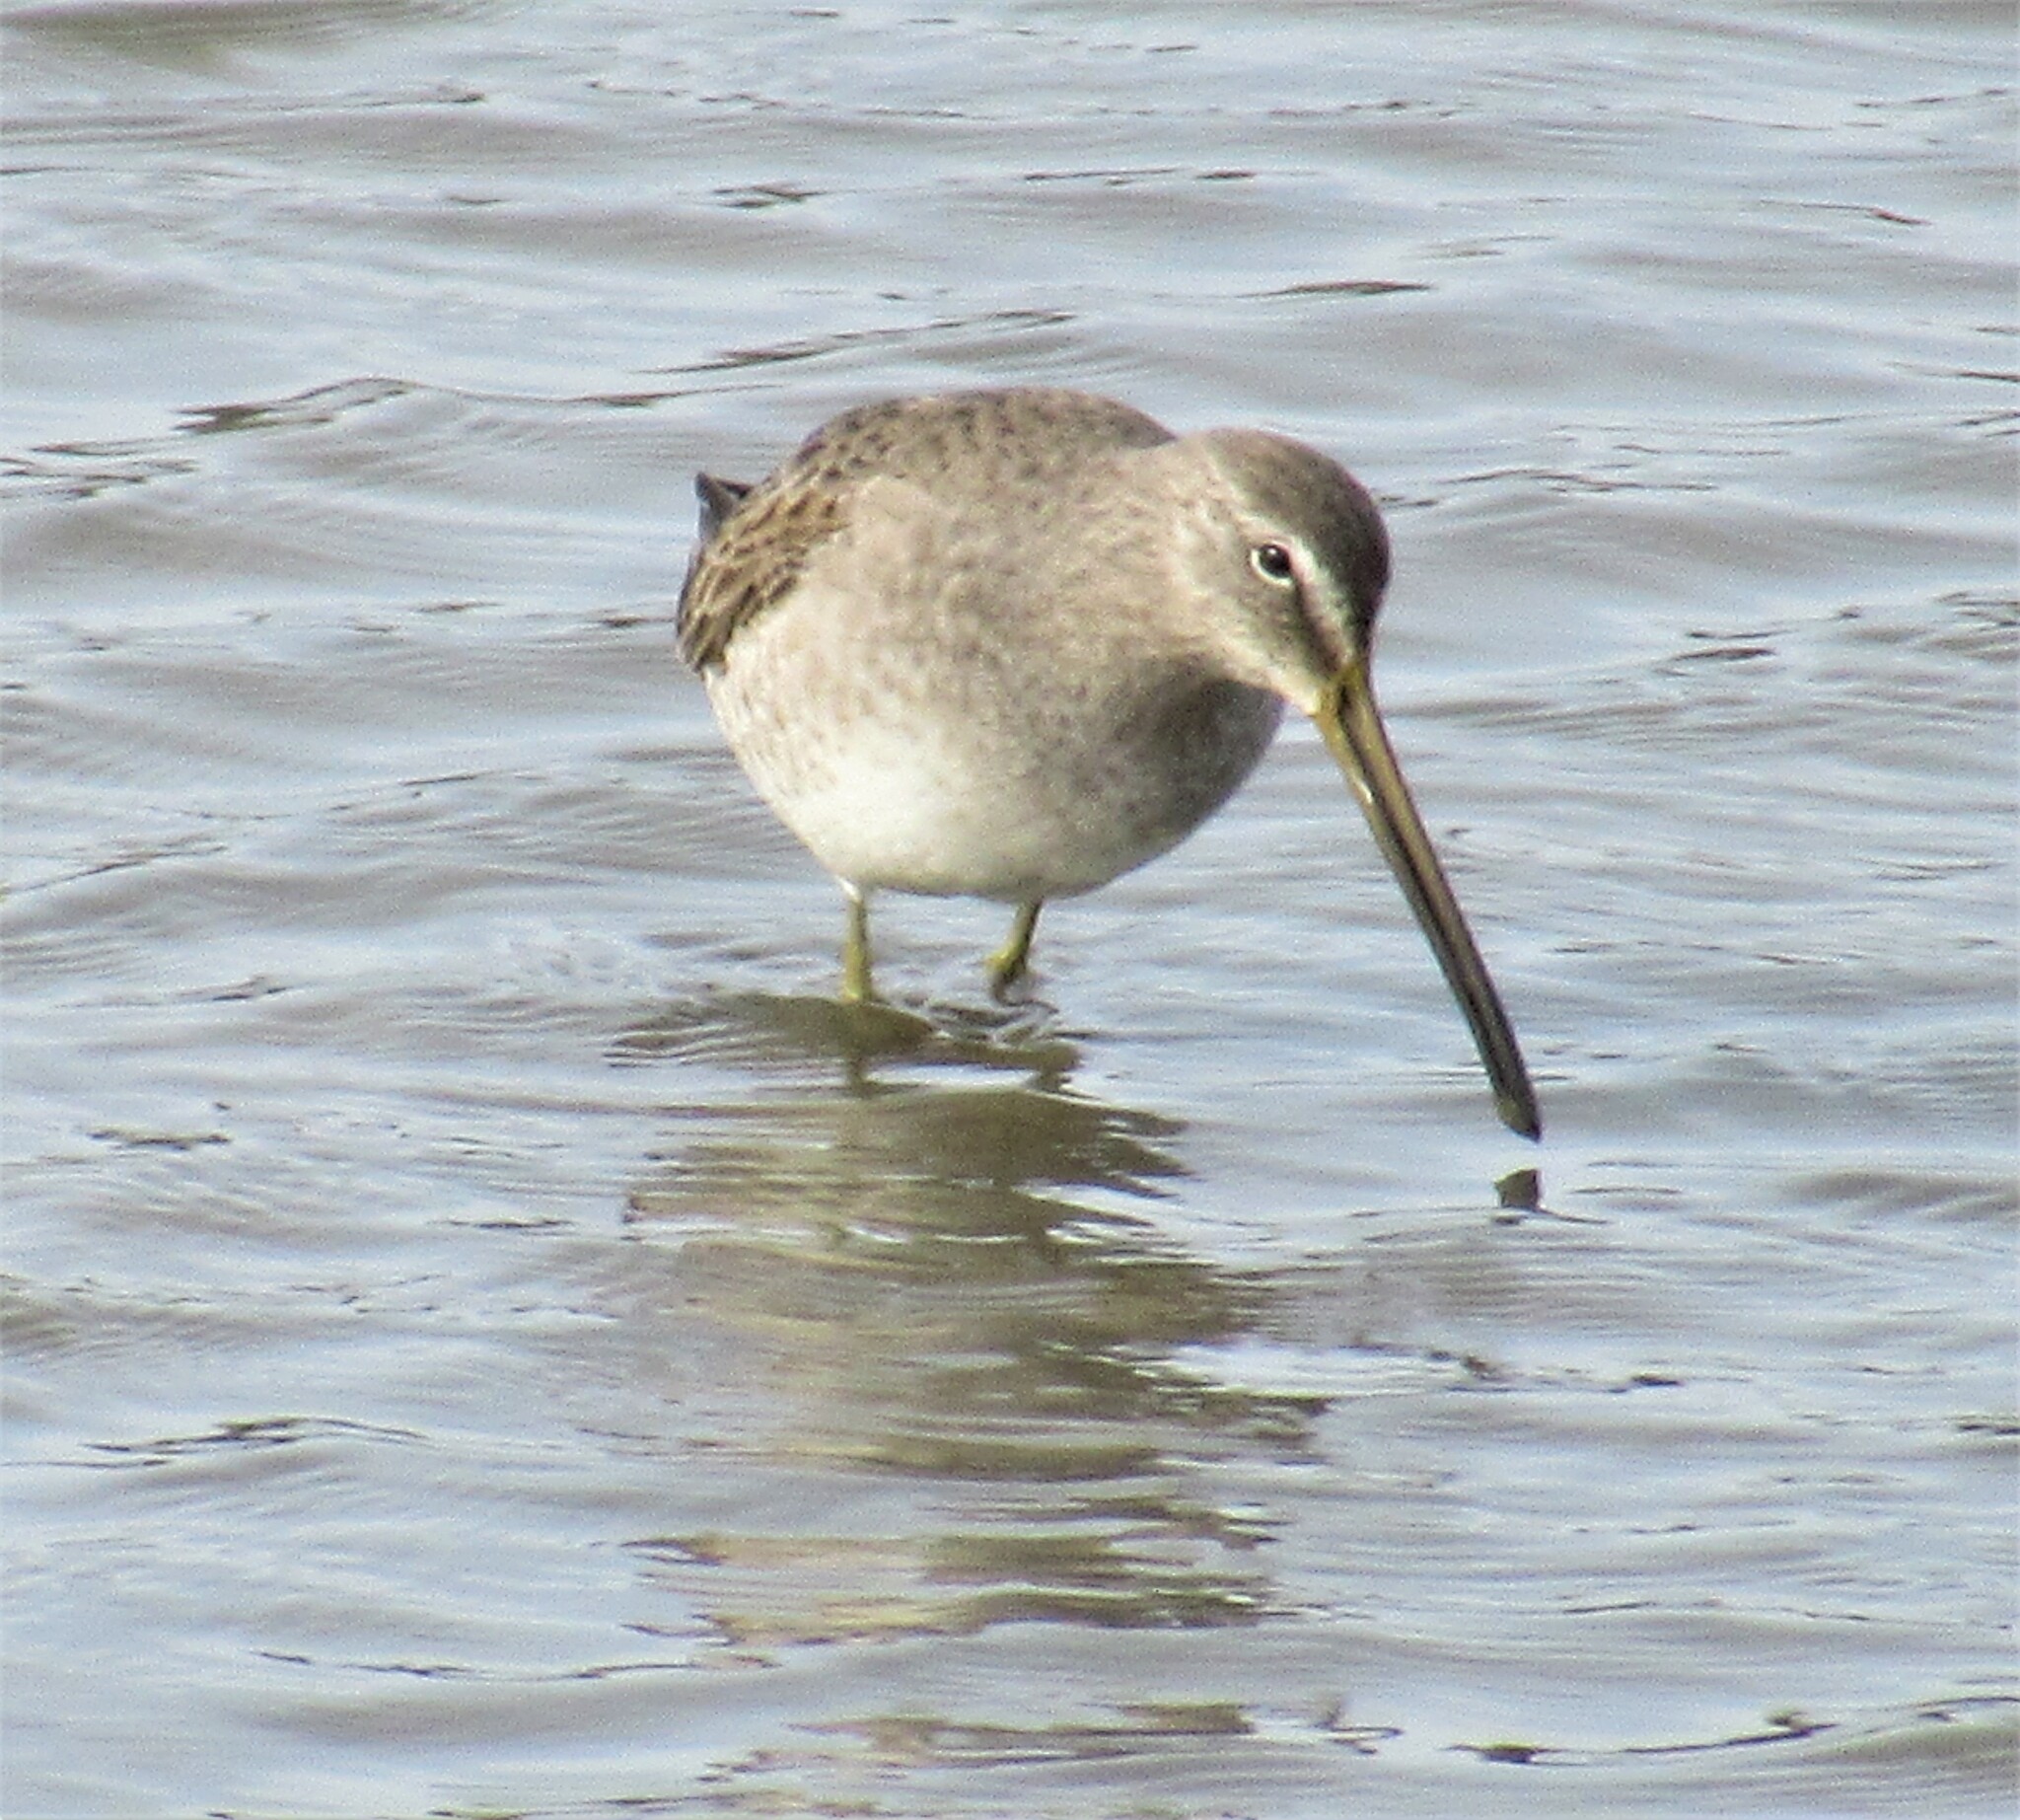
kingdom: Animalia
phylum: Chordata
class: Aves
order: Charadriiformes
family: Scolopacidae
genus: Limnodromus
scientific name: Limnodromus scolopaceus
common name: Long-billed dowitcher
